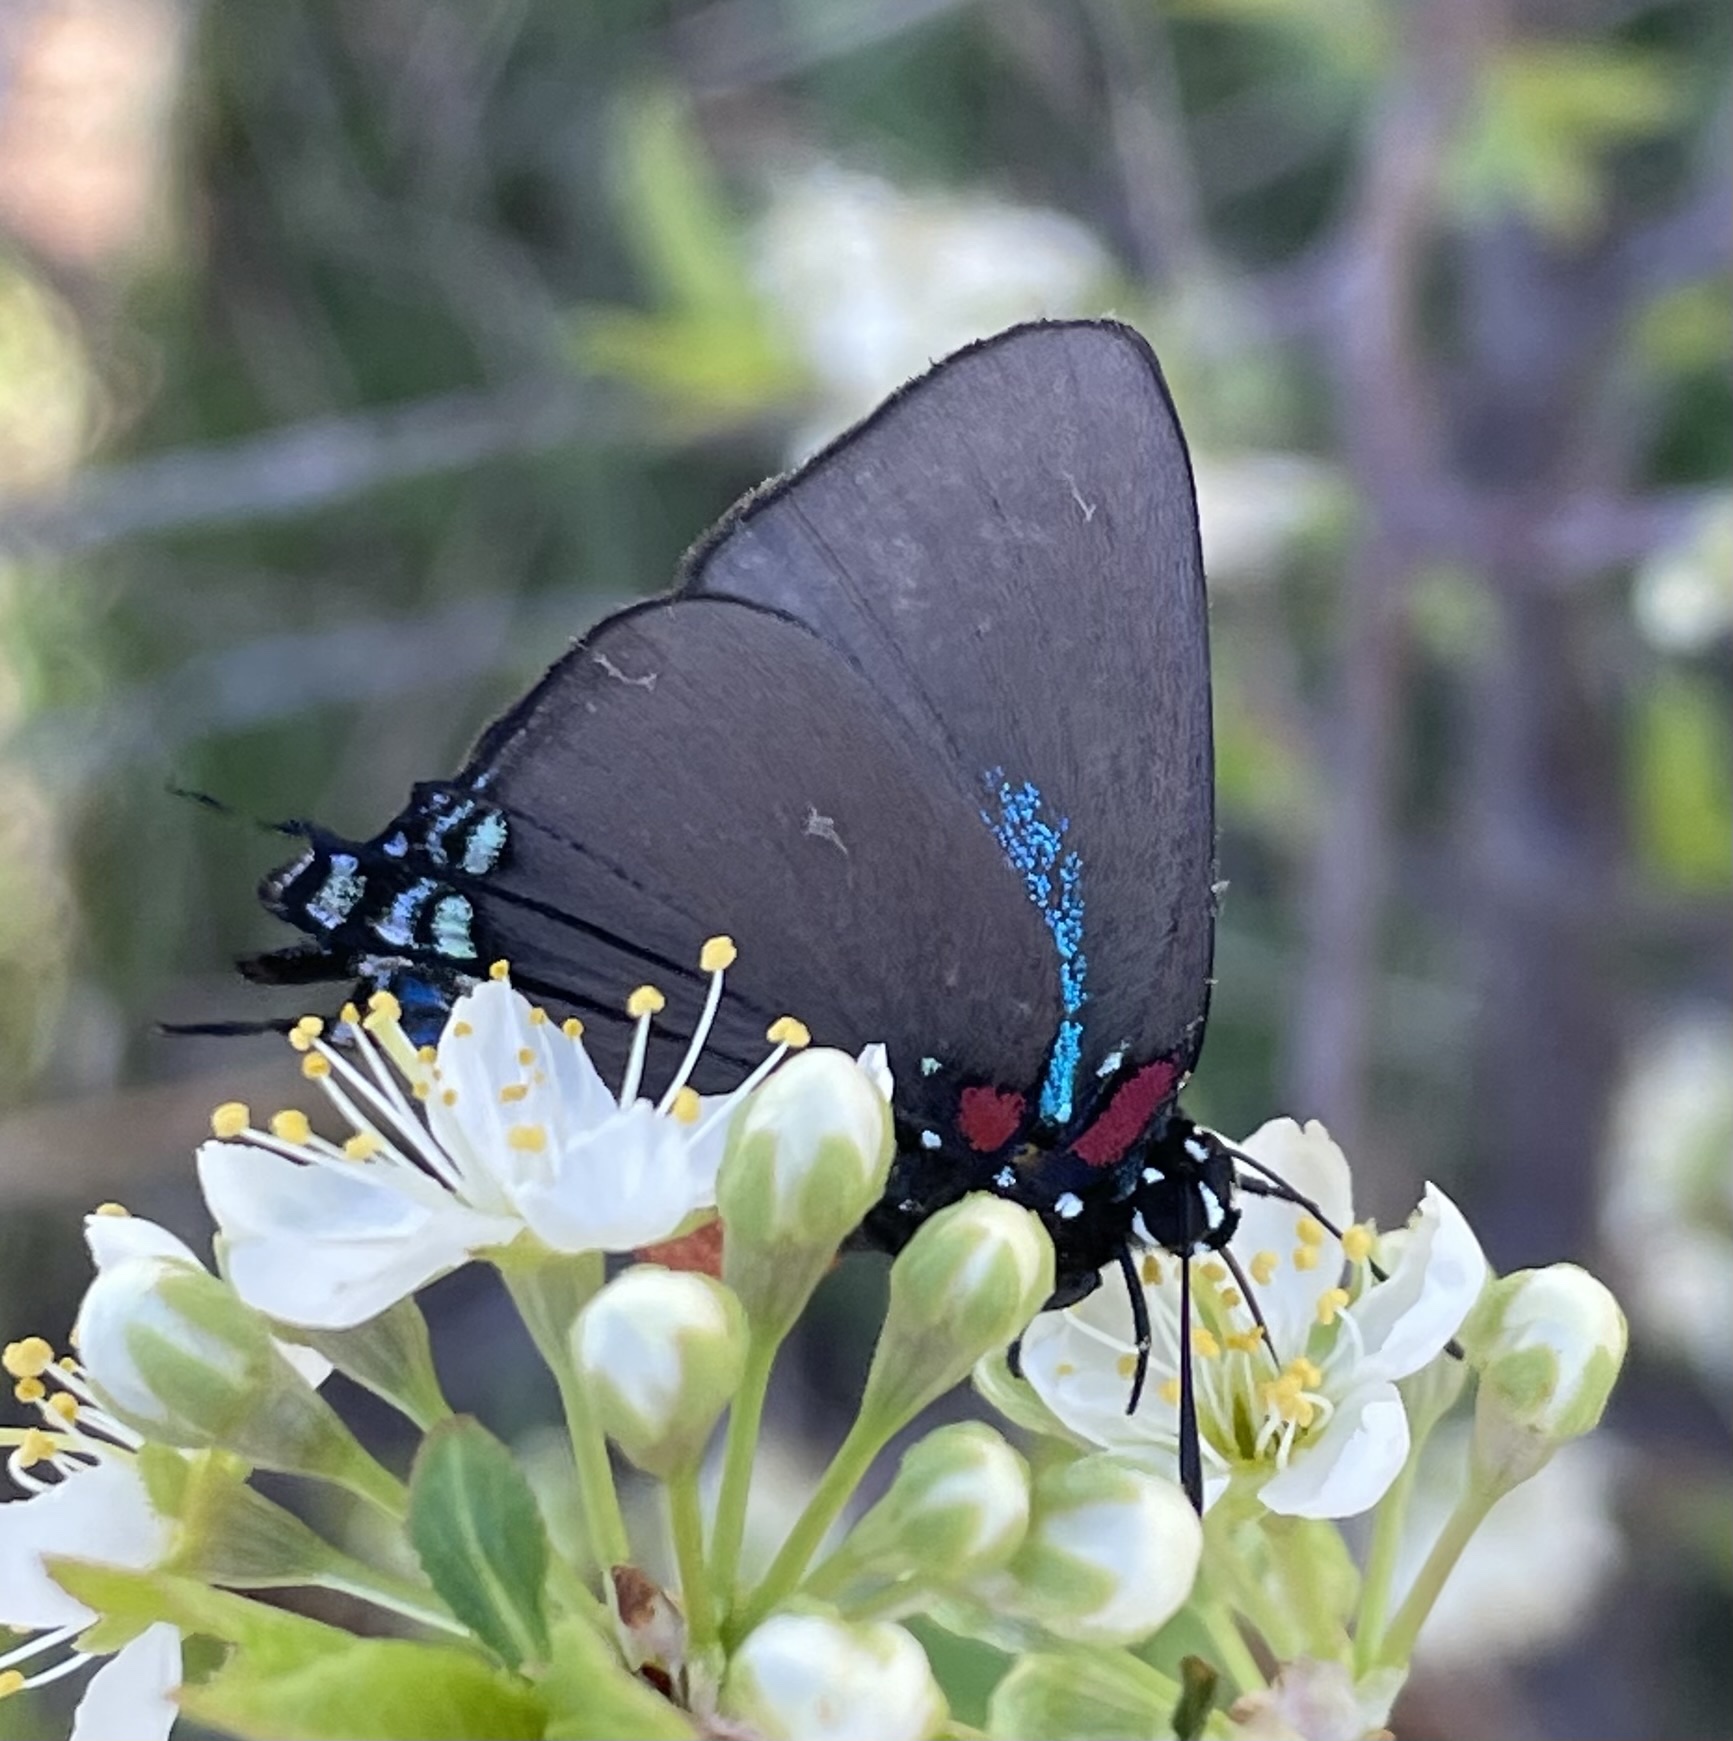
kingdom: Animalia
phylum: Arthropoda
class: Insecta
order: Lepidoptera
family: Lycaenidae
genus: Atlides
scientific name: Atlides halesus
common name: Great purple hairstreak
